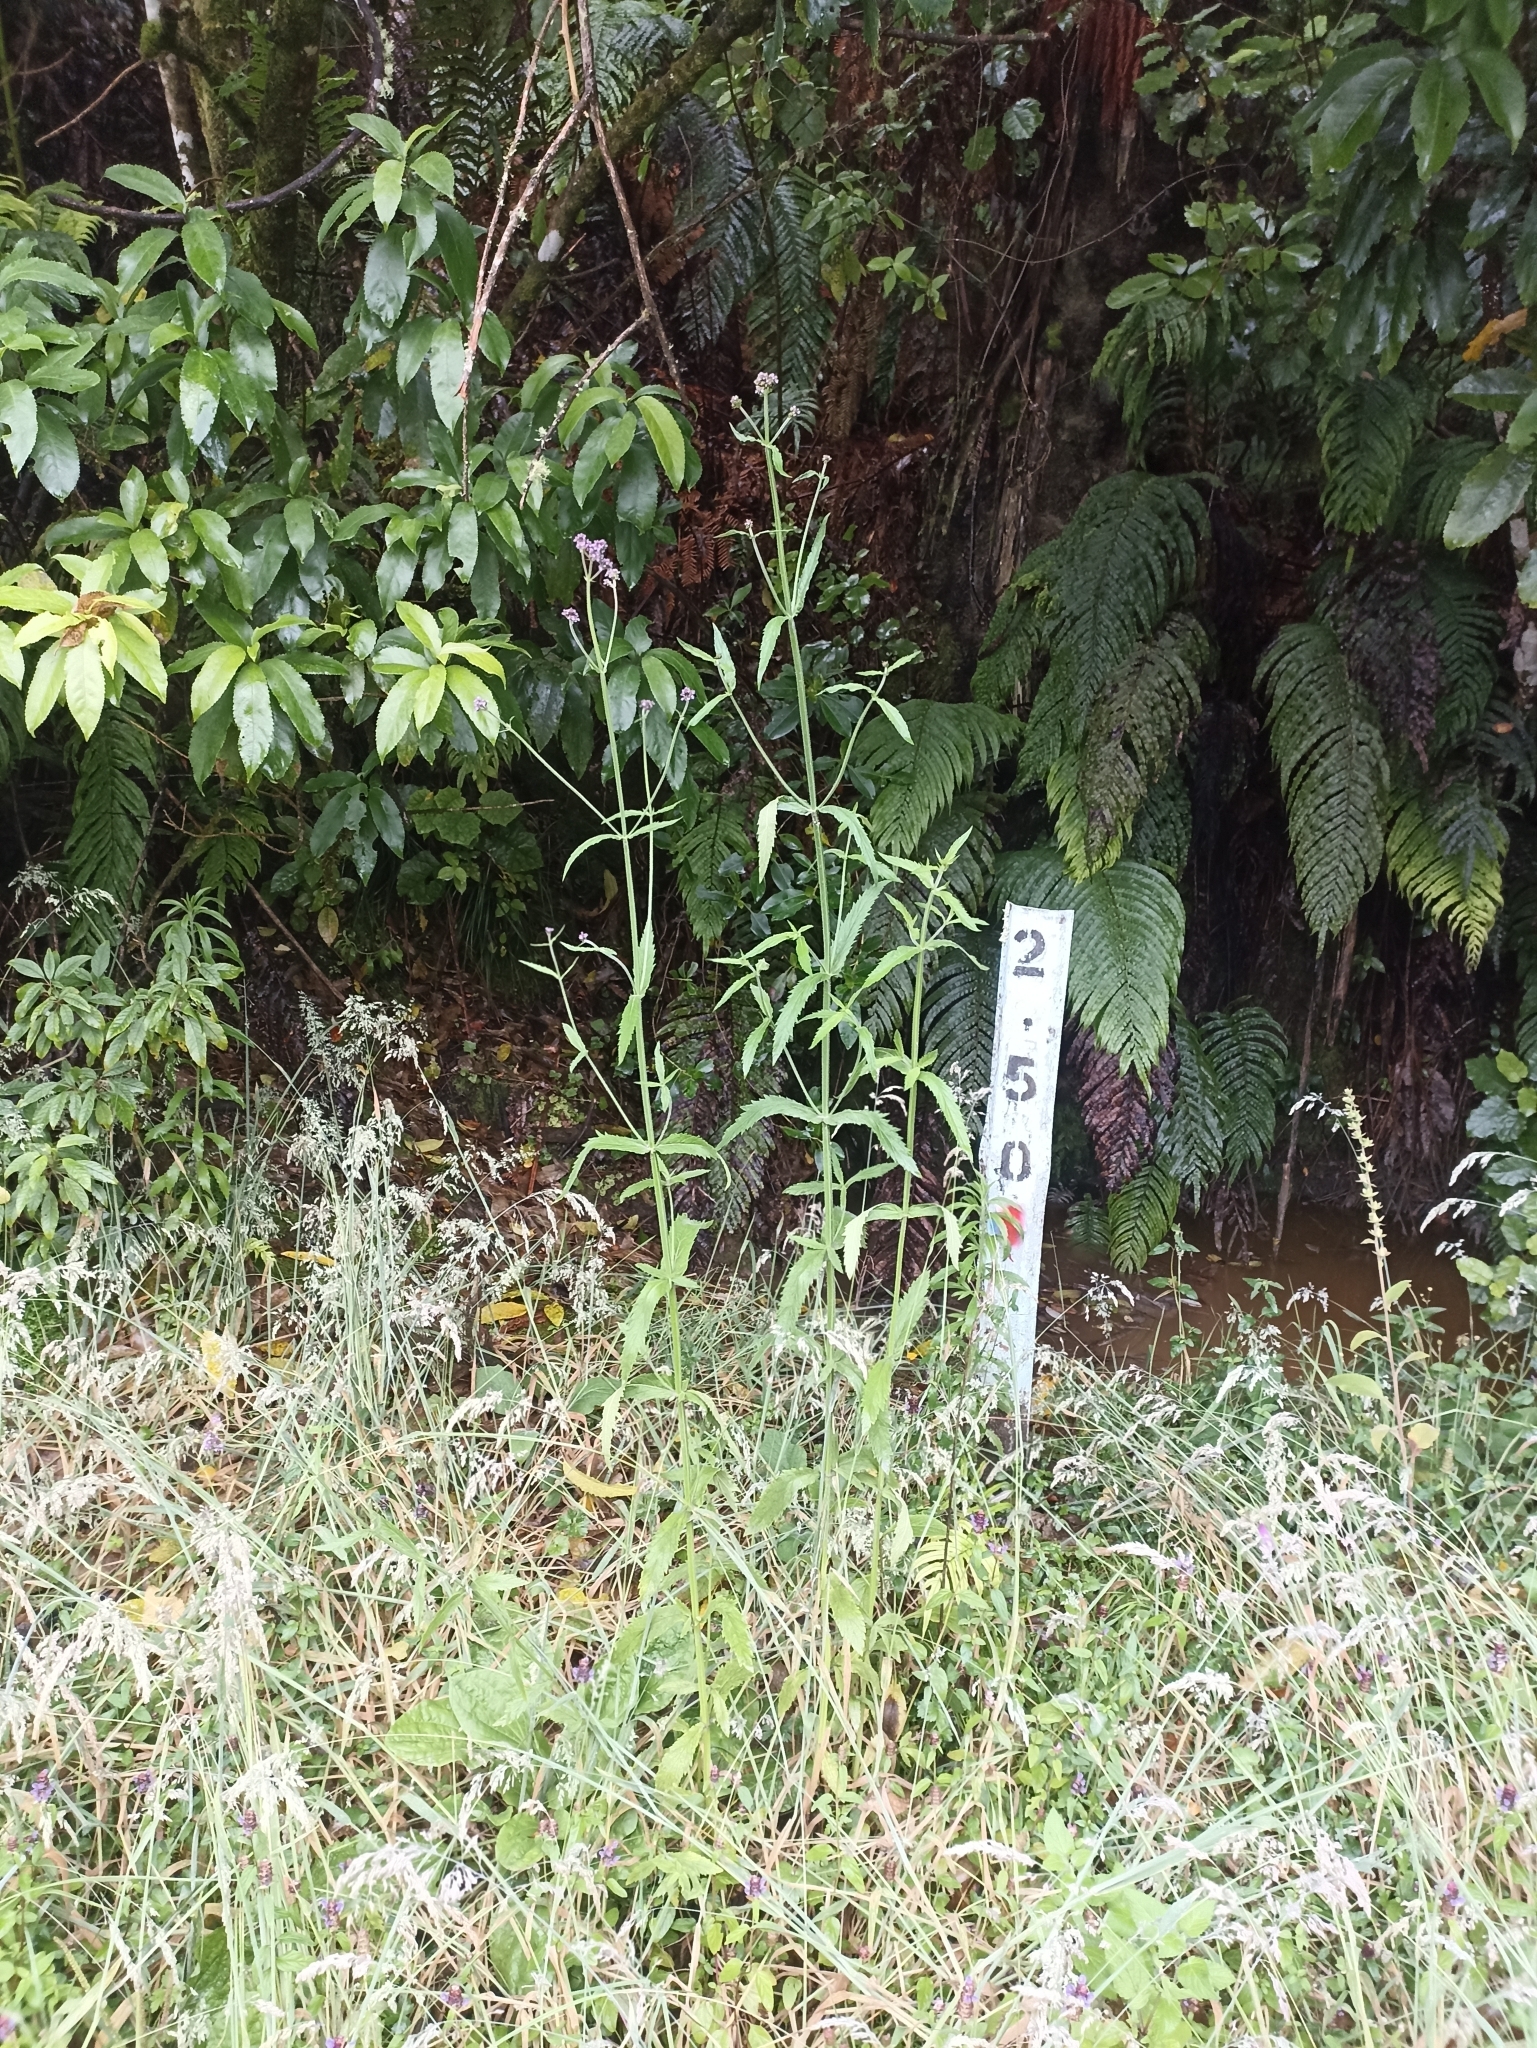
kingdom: Plantae
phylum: Tracheophyta
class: Magnoliopsida
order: Lamiales
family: Verbenaceae
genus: Verbena
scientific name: Verbena incompta
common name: Purpletop vervain
